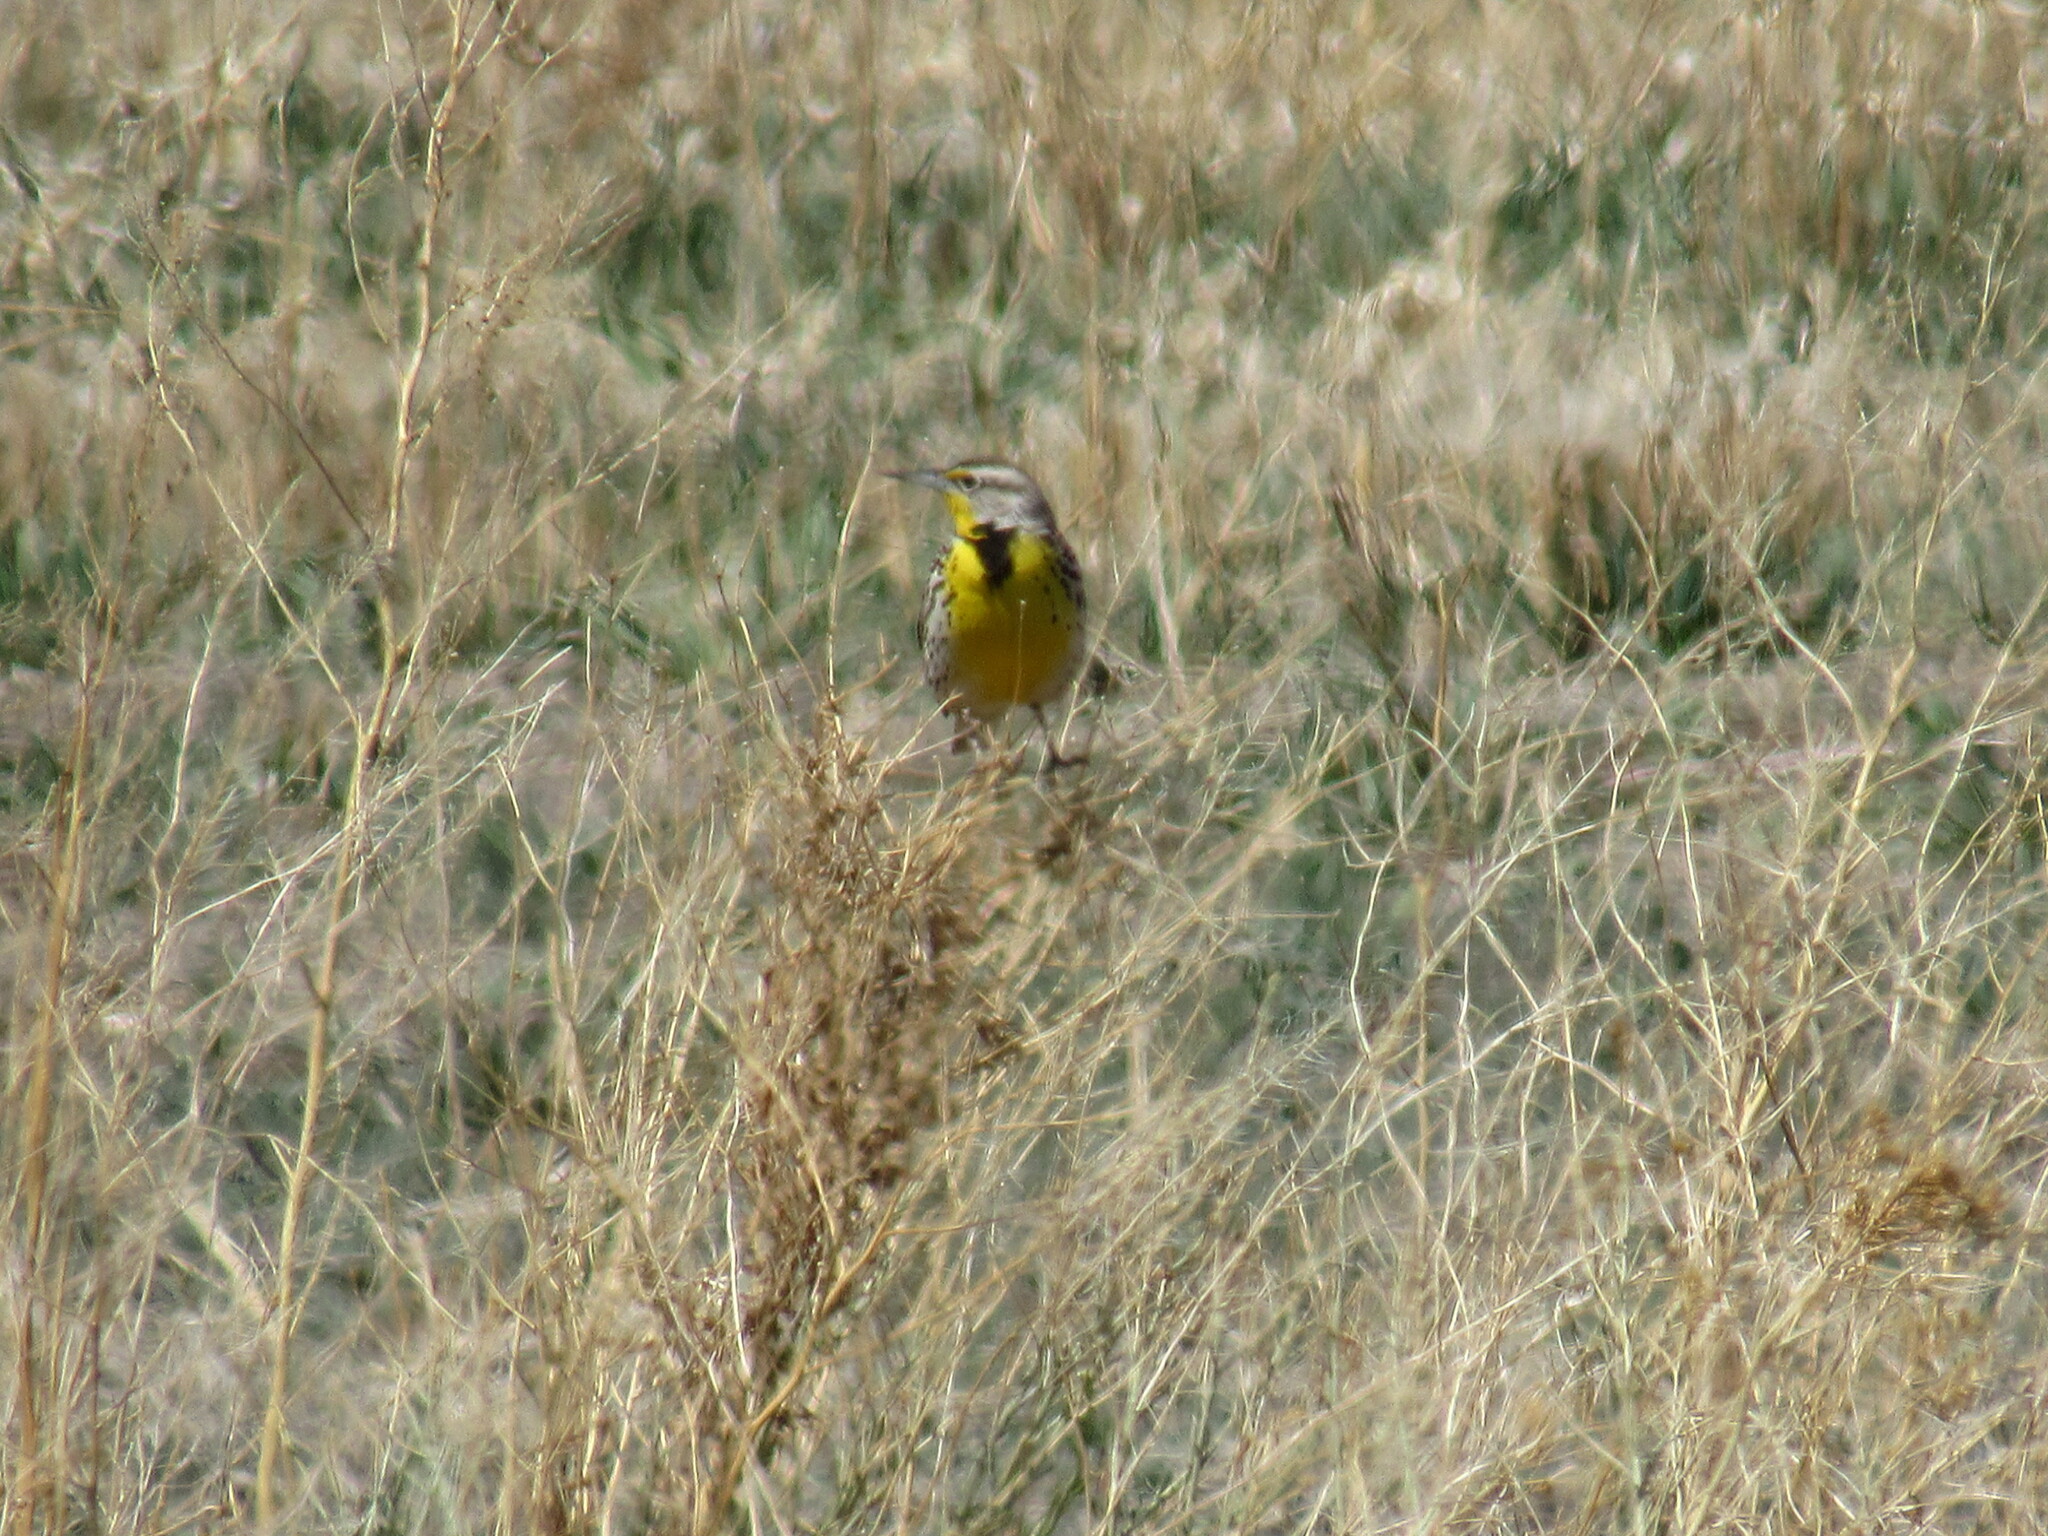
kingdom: Animalia
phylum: Chordata
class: Aves
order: Passeriformes
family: Icteridae
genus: Sturnella
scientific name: Sturnella neglecta
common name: Western meadowlark
